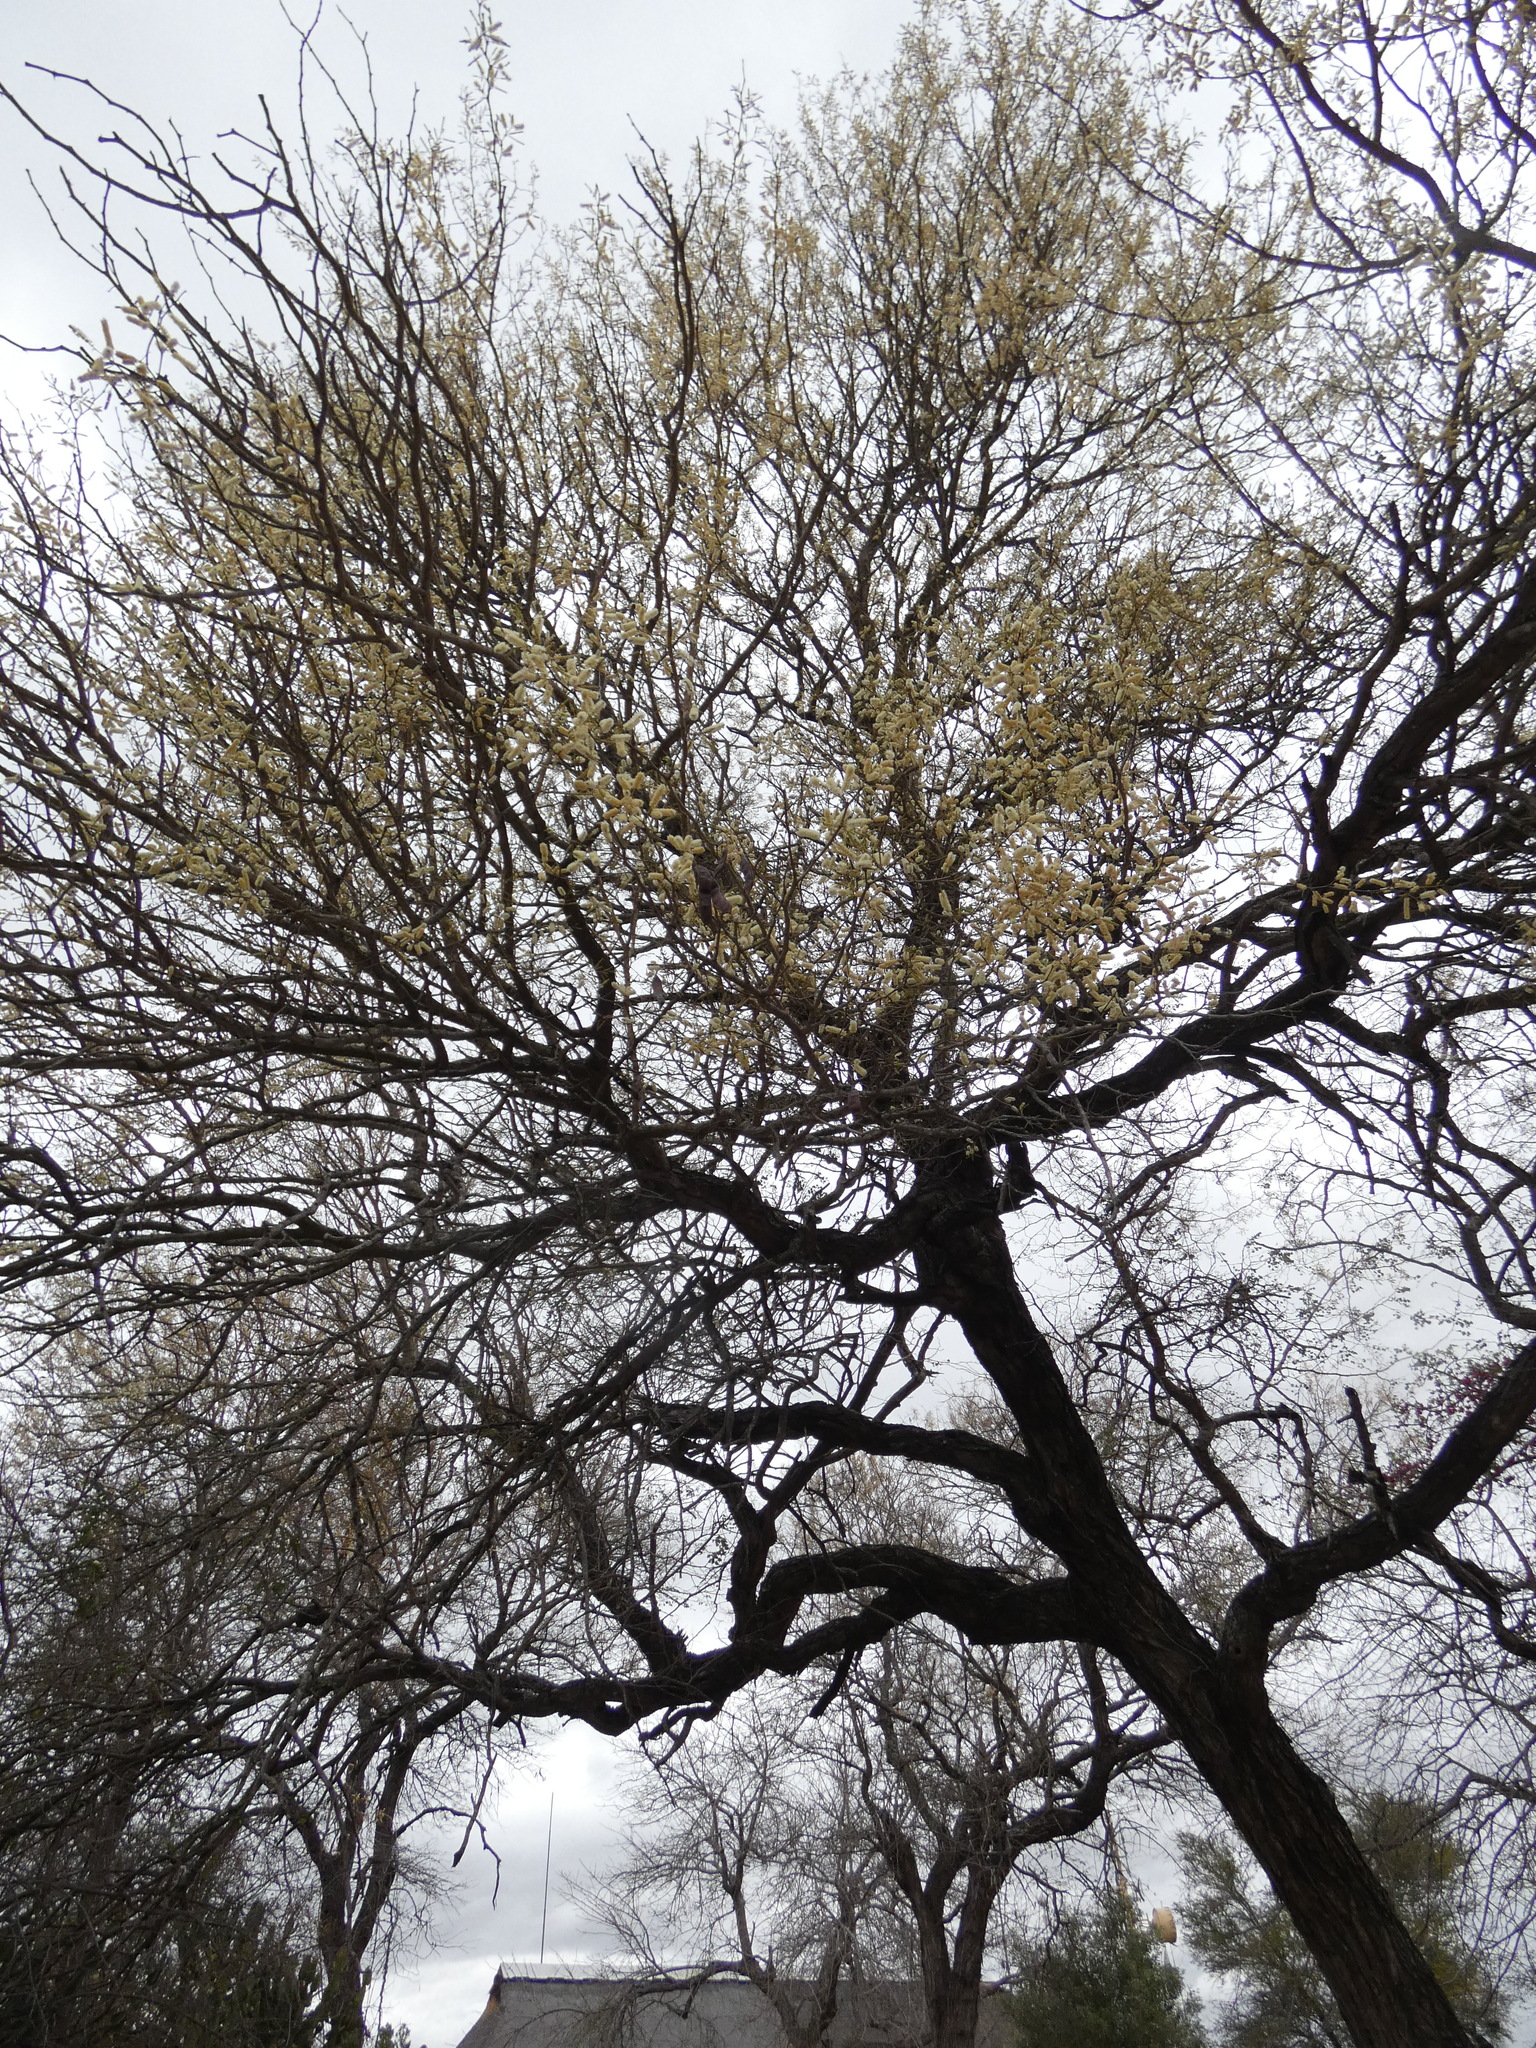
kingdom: Plantae
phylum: Tracheophyta
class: Magnoliopsida
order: Fabales
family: Fabaceae
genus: Senegalia
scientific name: Senegalia nigrescens
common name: Knobthorn
